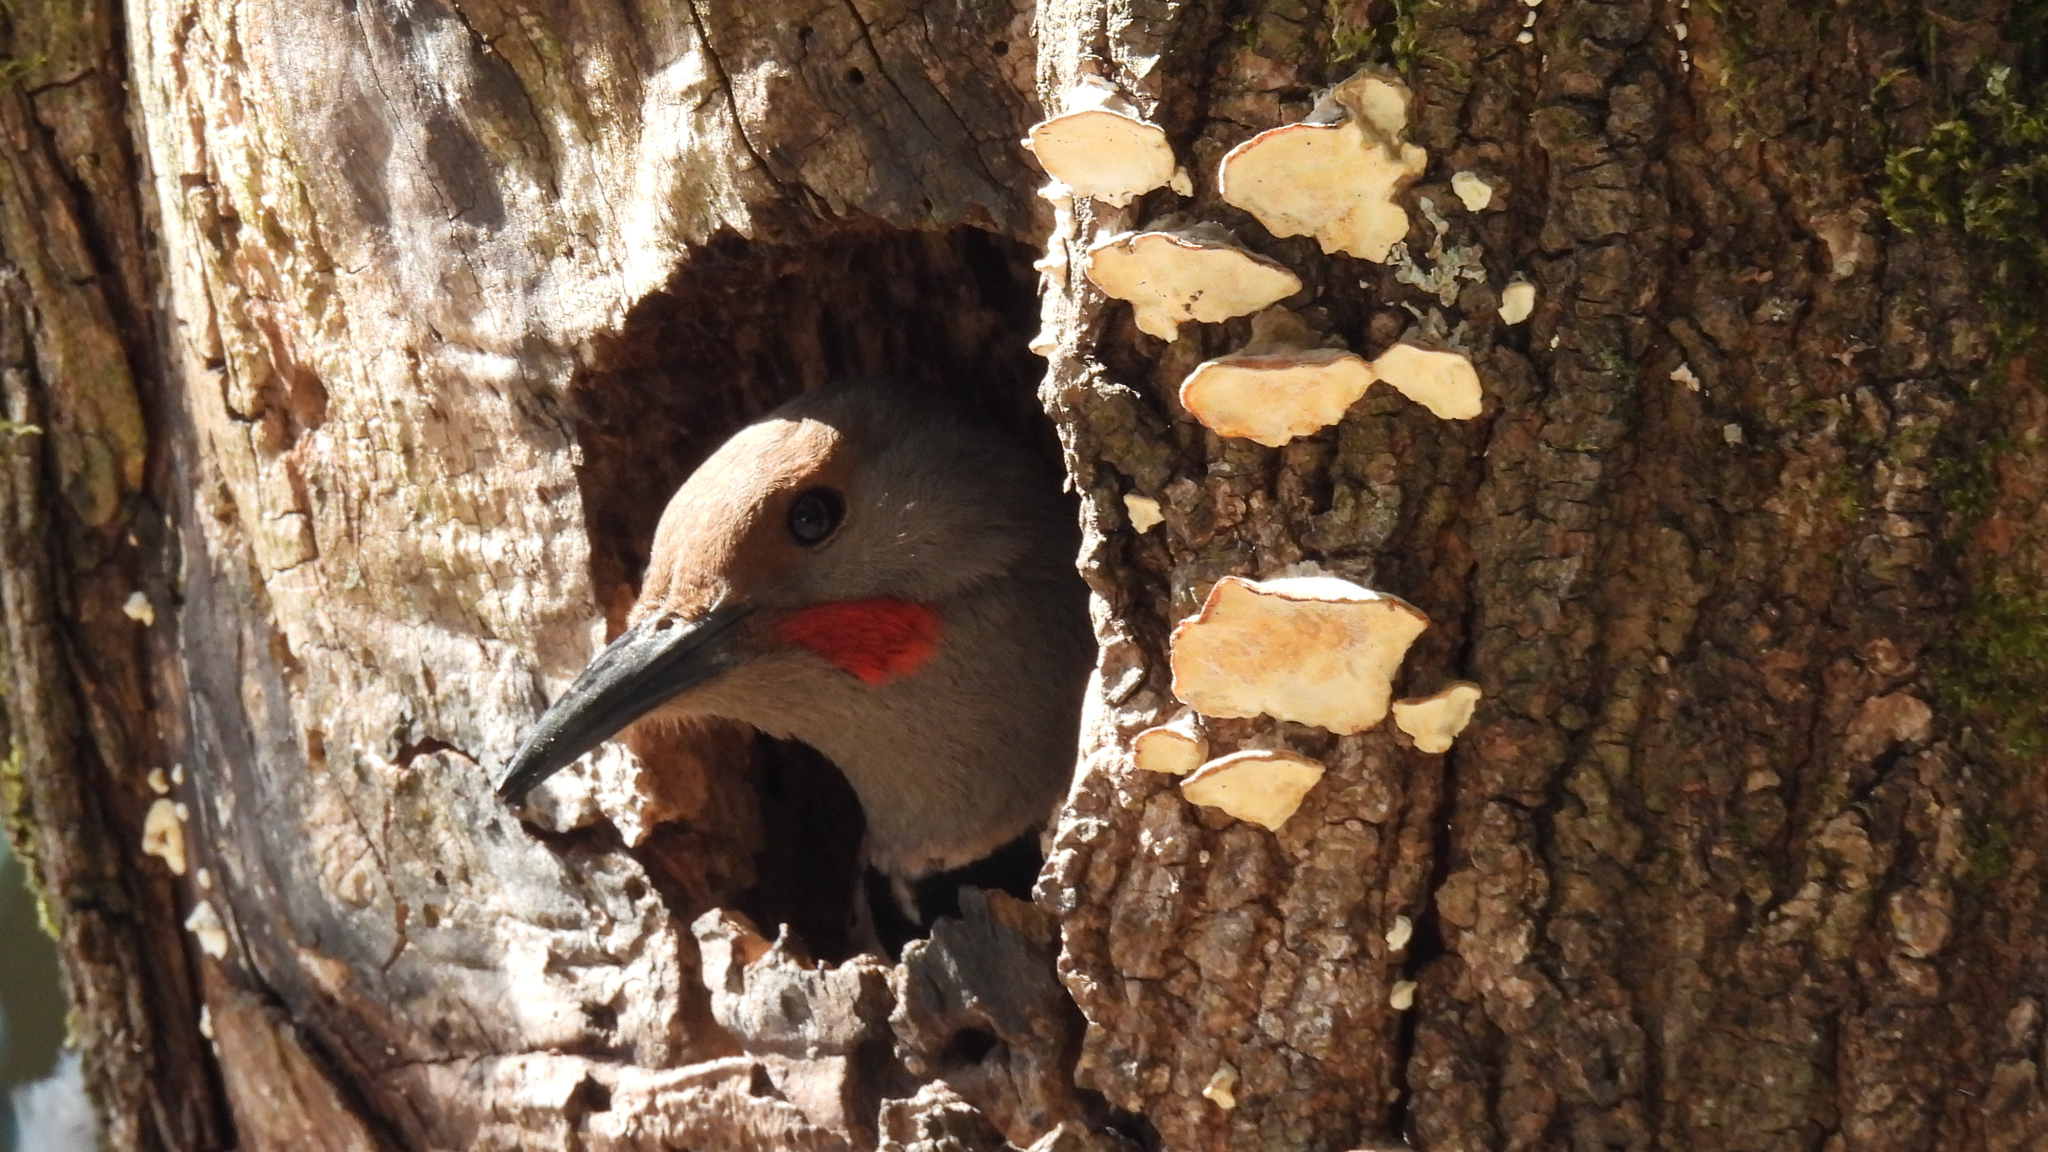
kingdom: Animalia
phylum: Chordata
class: Aves
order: Piciformes
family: Picidae
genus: Colaptes
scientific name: Colaptes auratus
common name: Northern flicker
